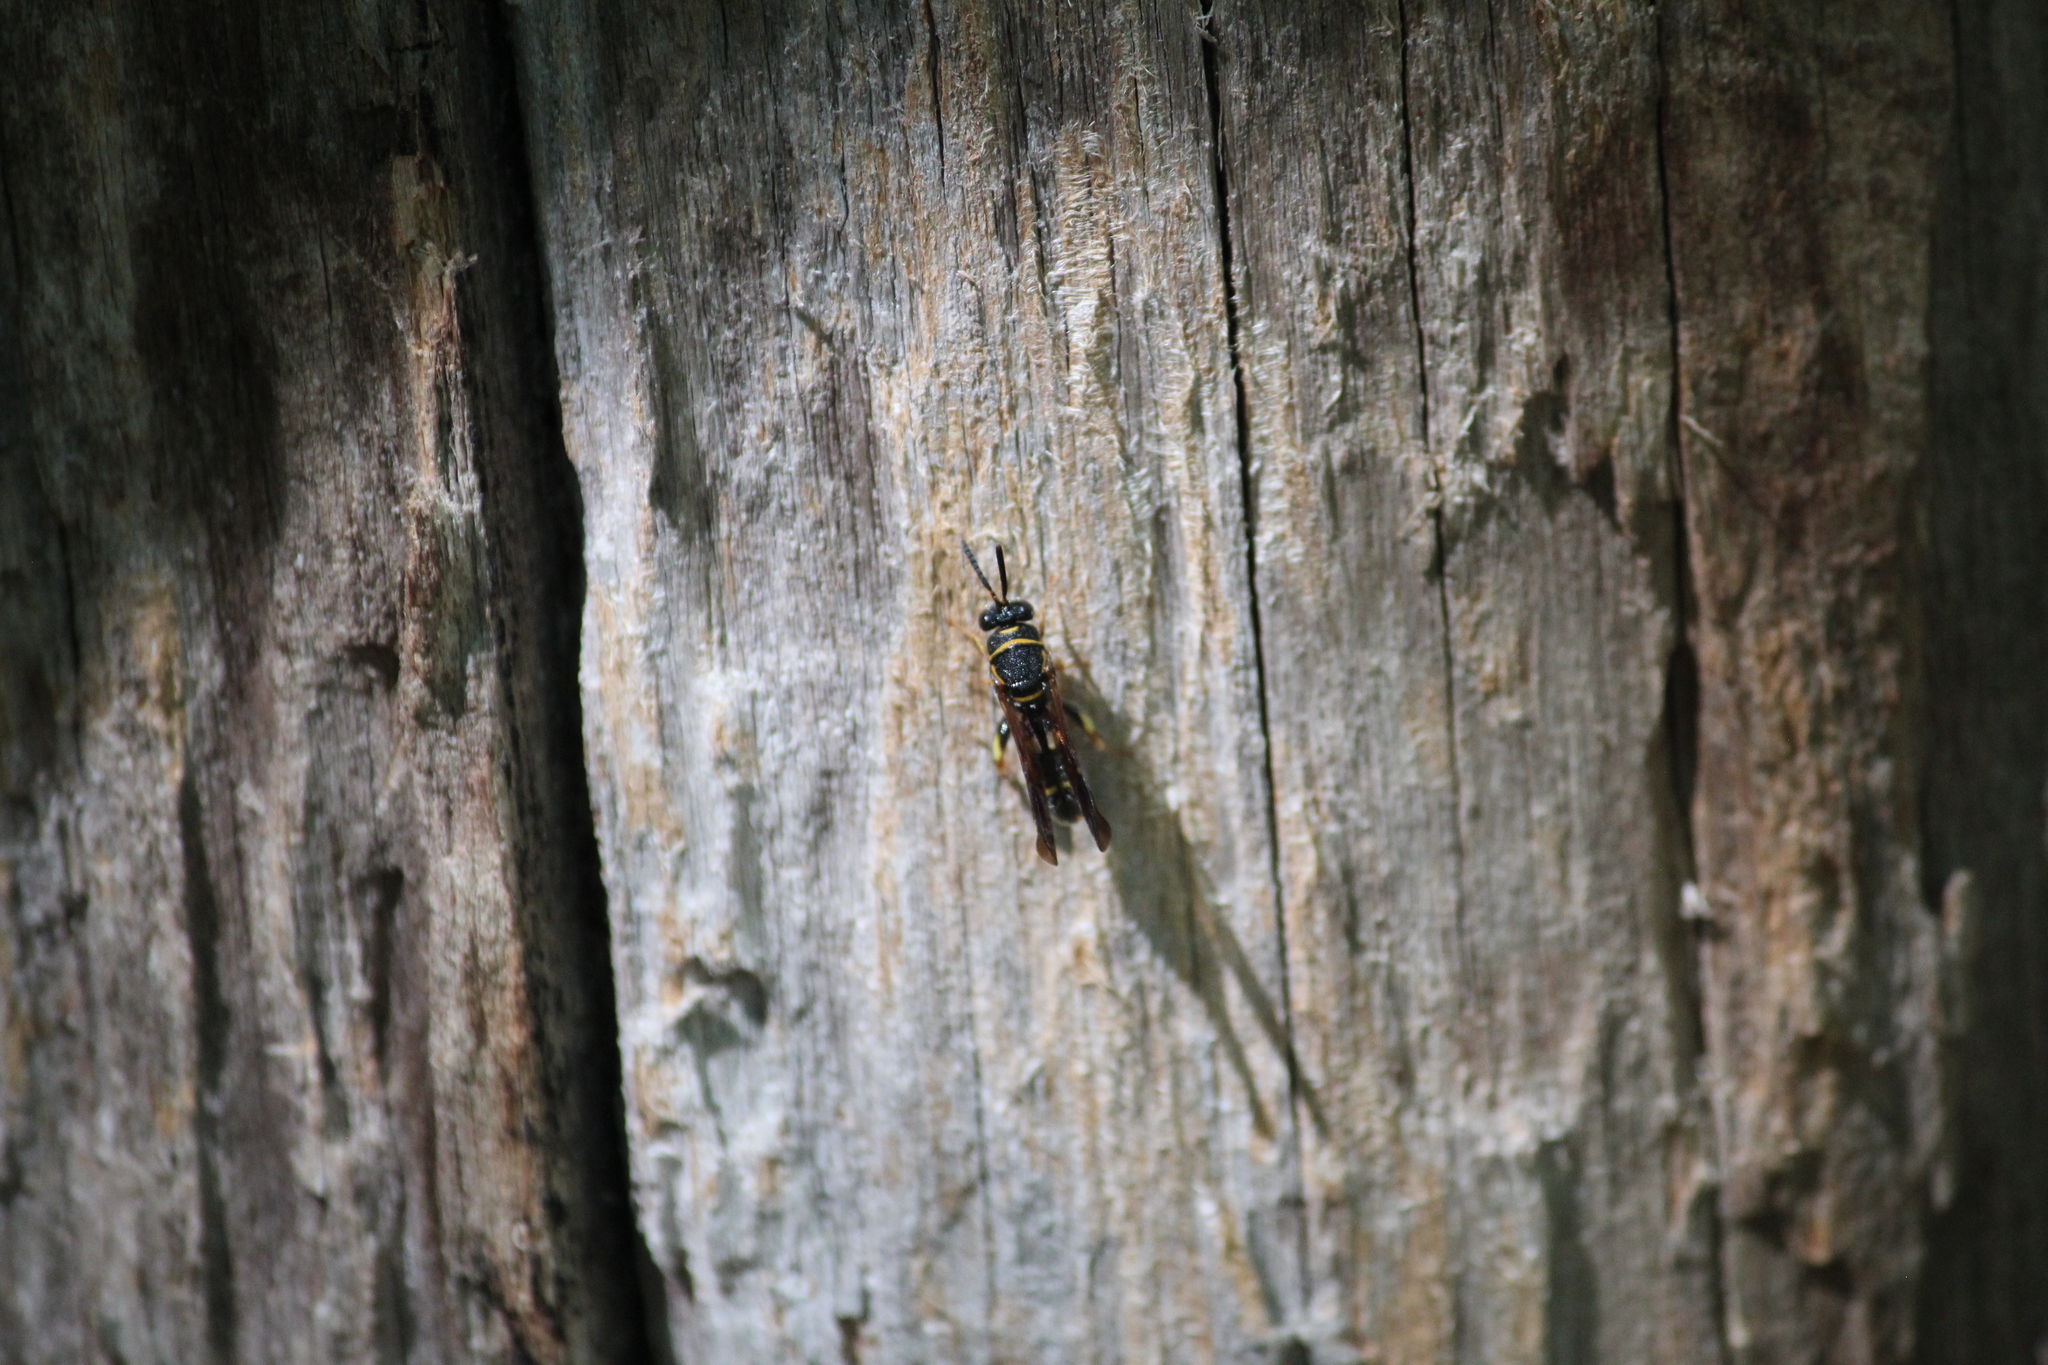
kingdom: Animalia
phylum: Arthropoda
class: Insecta
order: Hymenoptera
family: Leucospidae
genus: Leucospis
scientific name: Leucospis affinis
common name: Wasp
